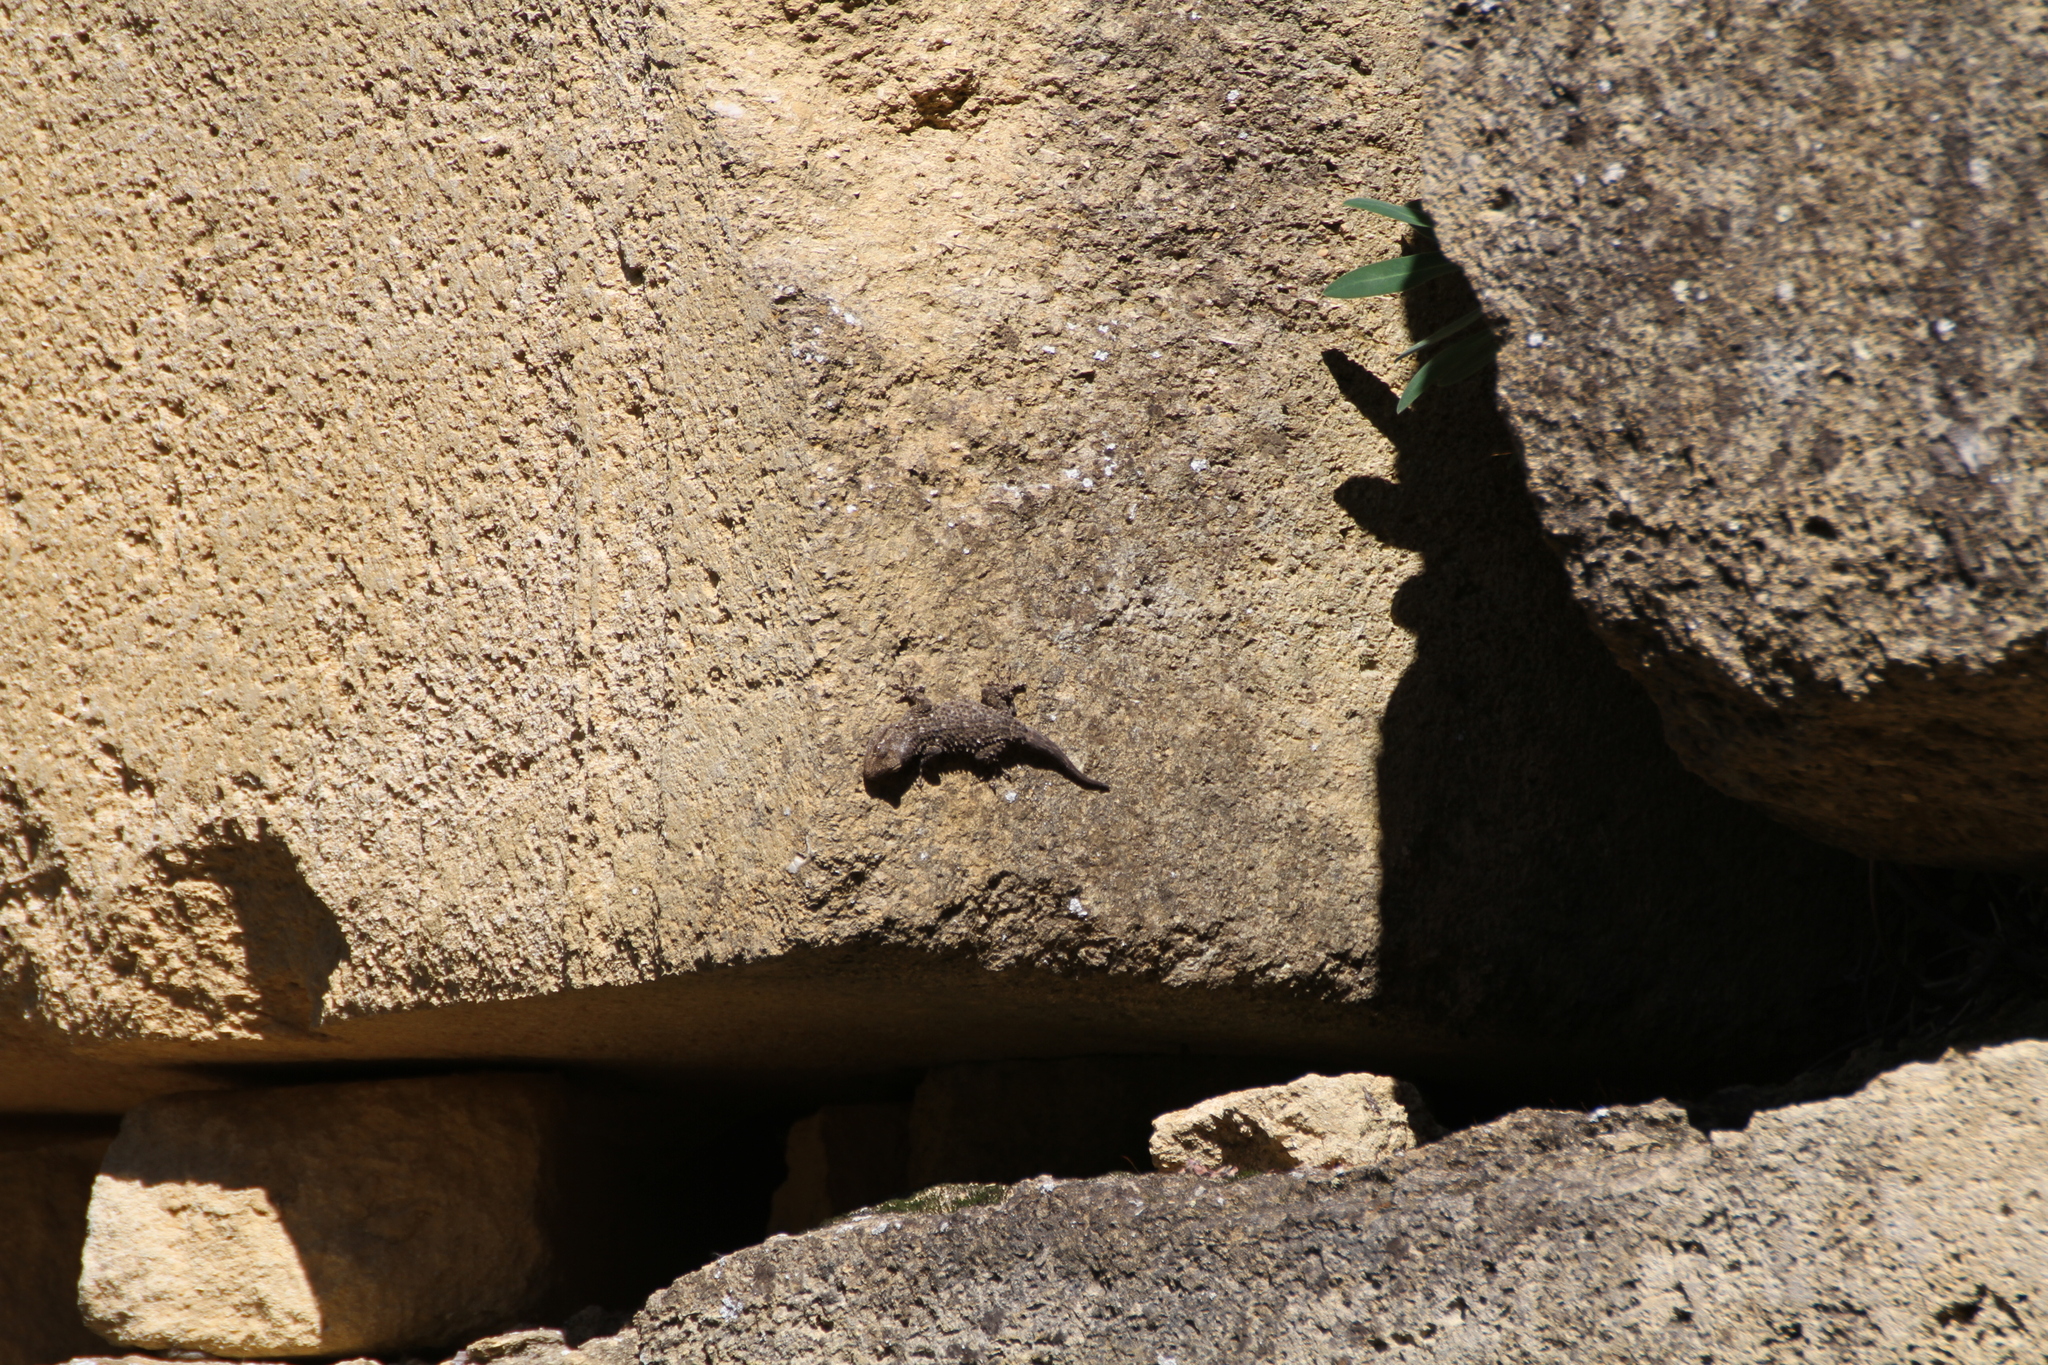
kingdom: Animalia
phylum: Chordata
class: Squamata
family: Phyllodactylidae
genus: Tarentola
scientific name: Tarentola mauritanica
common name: Moorish gecko
